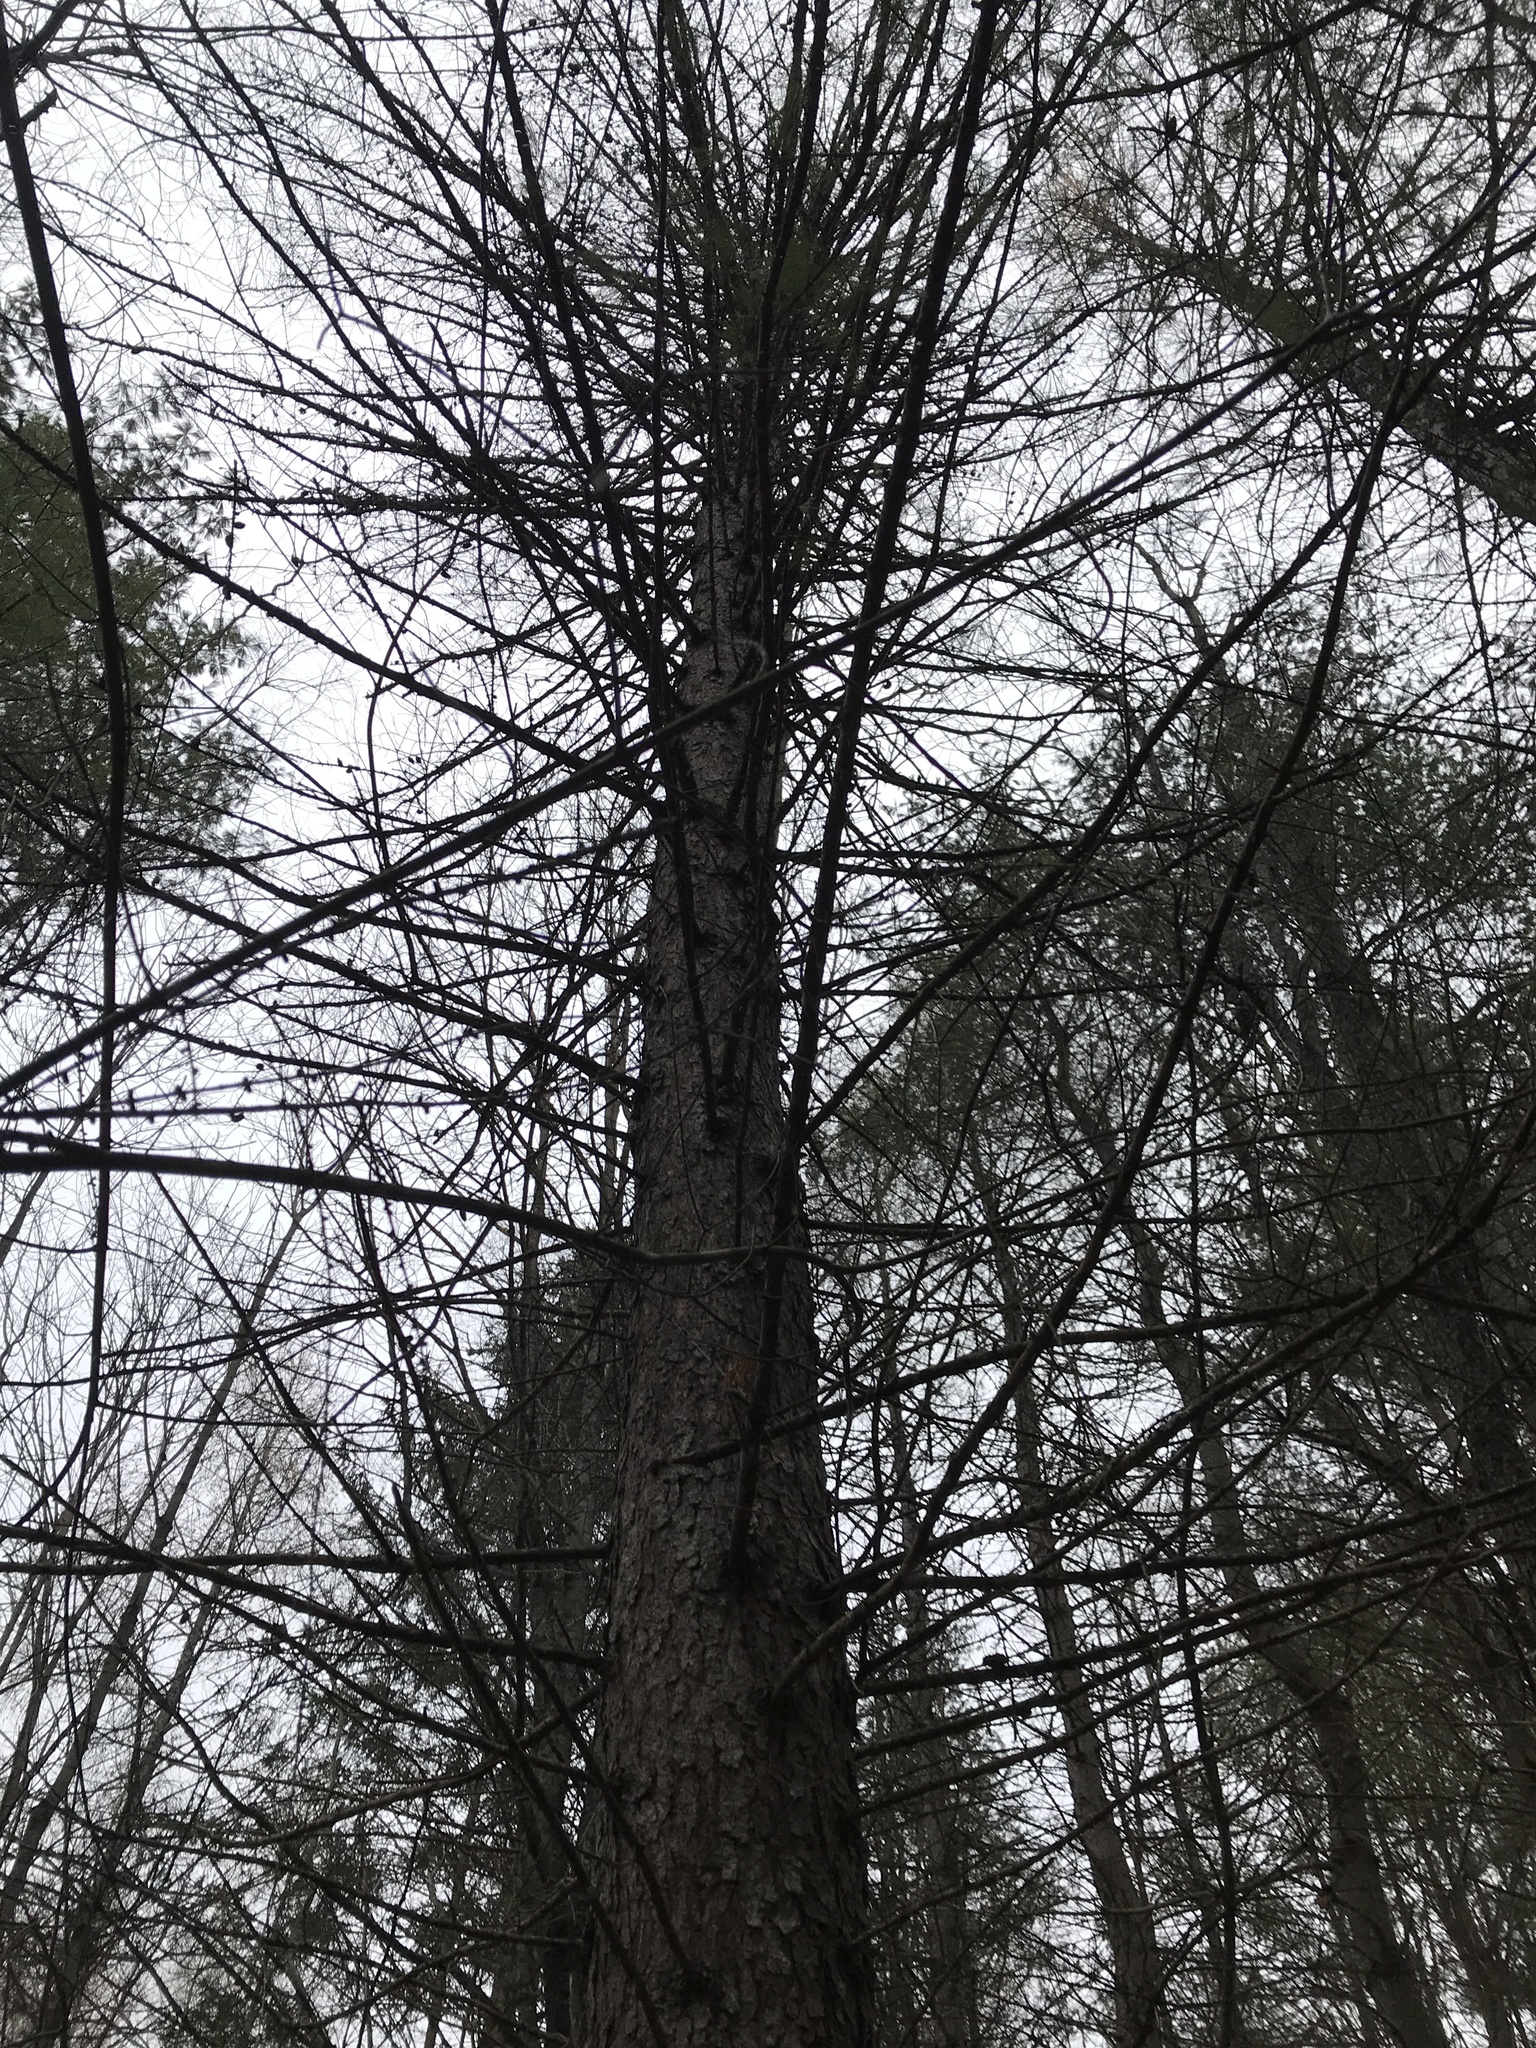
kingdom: Plantae
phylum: Tracheophyta
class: Pinopsida
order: Pinales
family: Pinaceae
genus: Larix
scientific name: Larix decidua
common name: European larch
